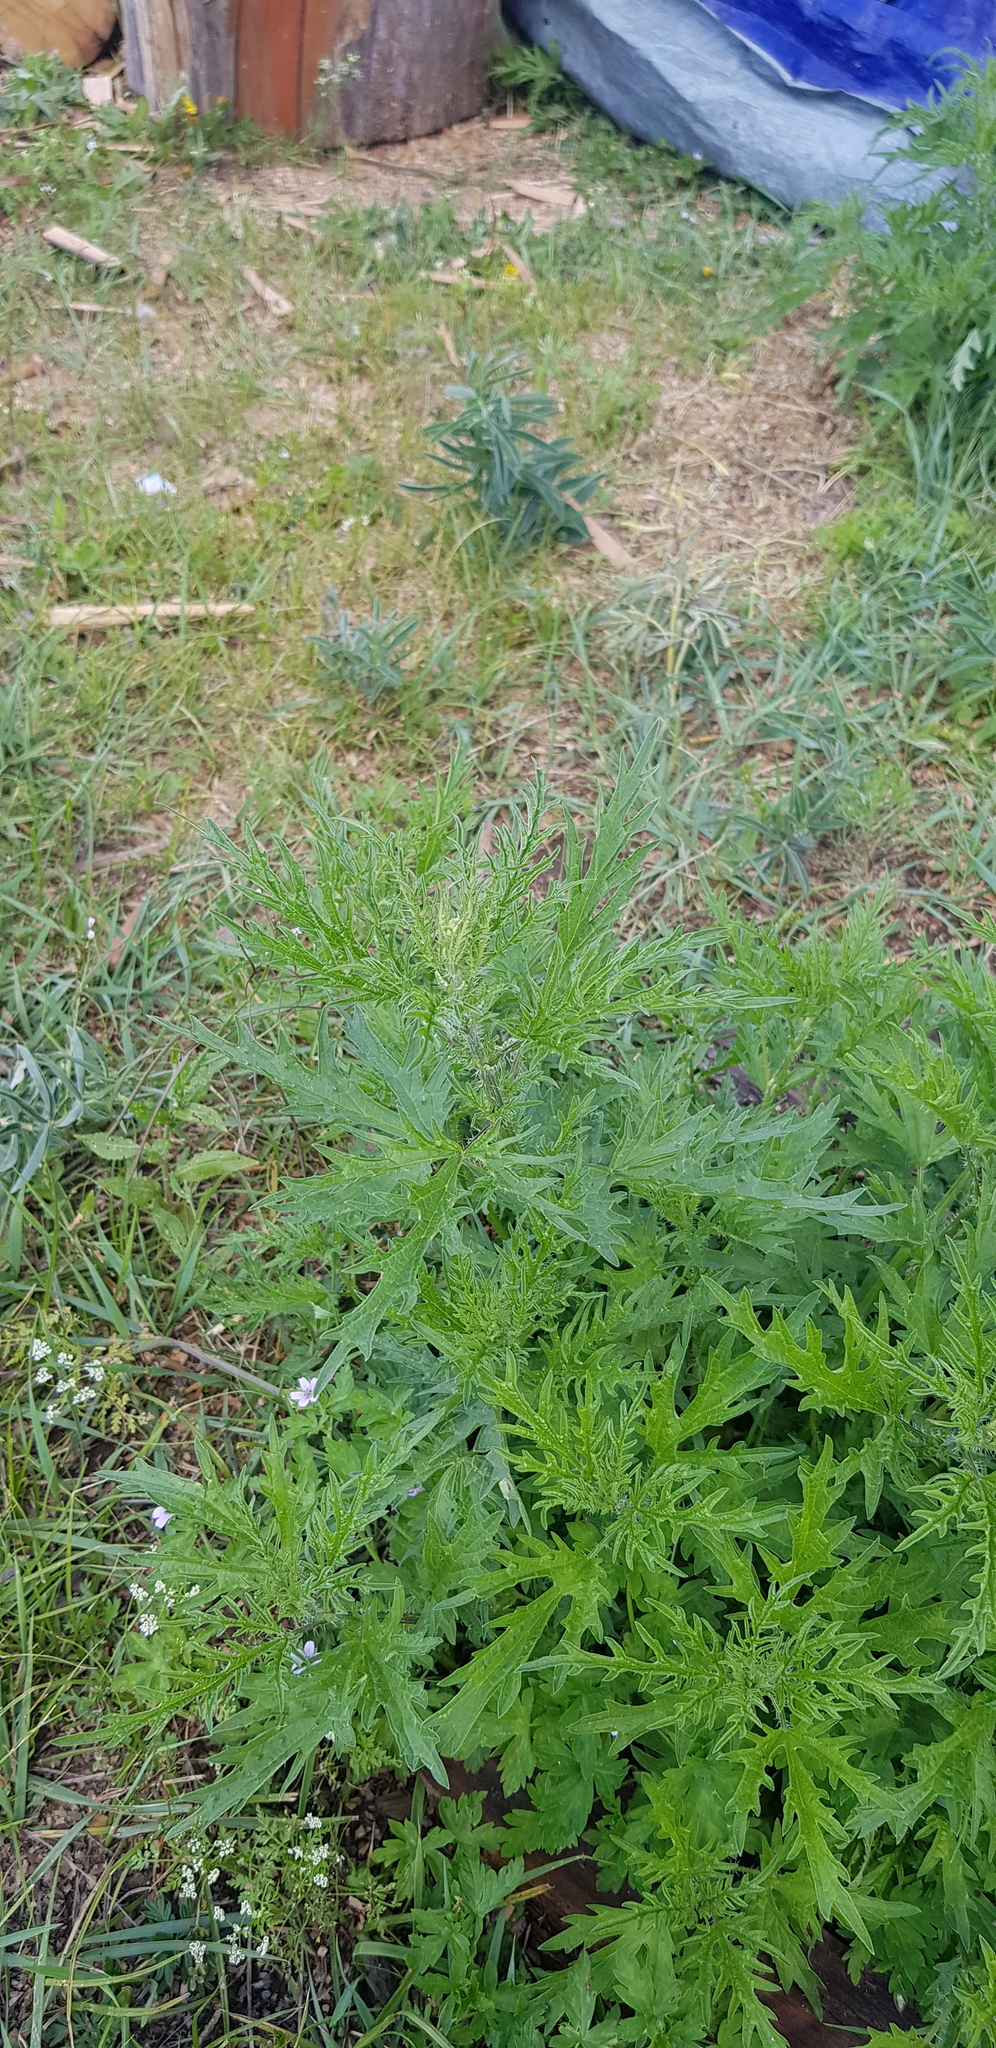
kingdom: Plantae
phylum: Tracheophyta
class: Magnoliopsida
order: Rosales
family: Urticaceae
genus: Urtica
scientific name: Urtica cannabina
